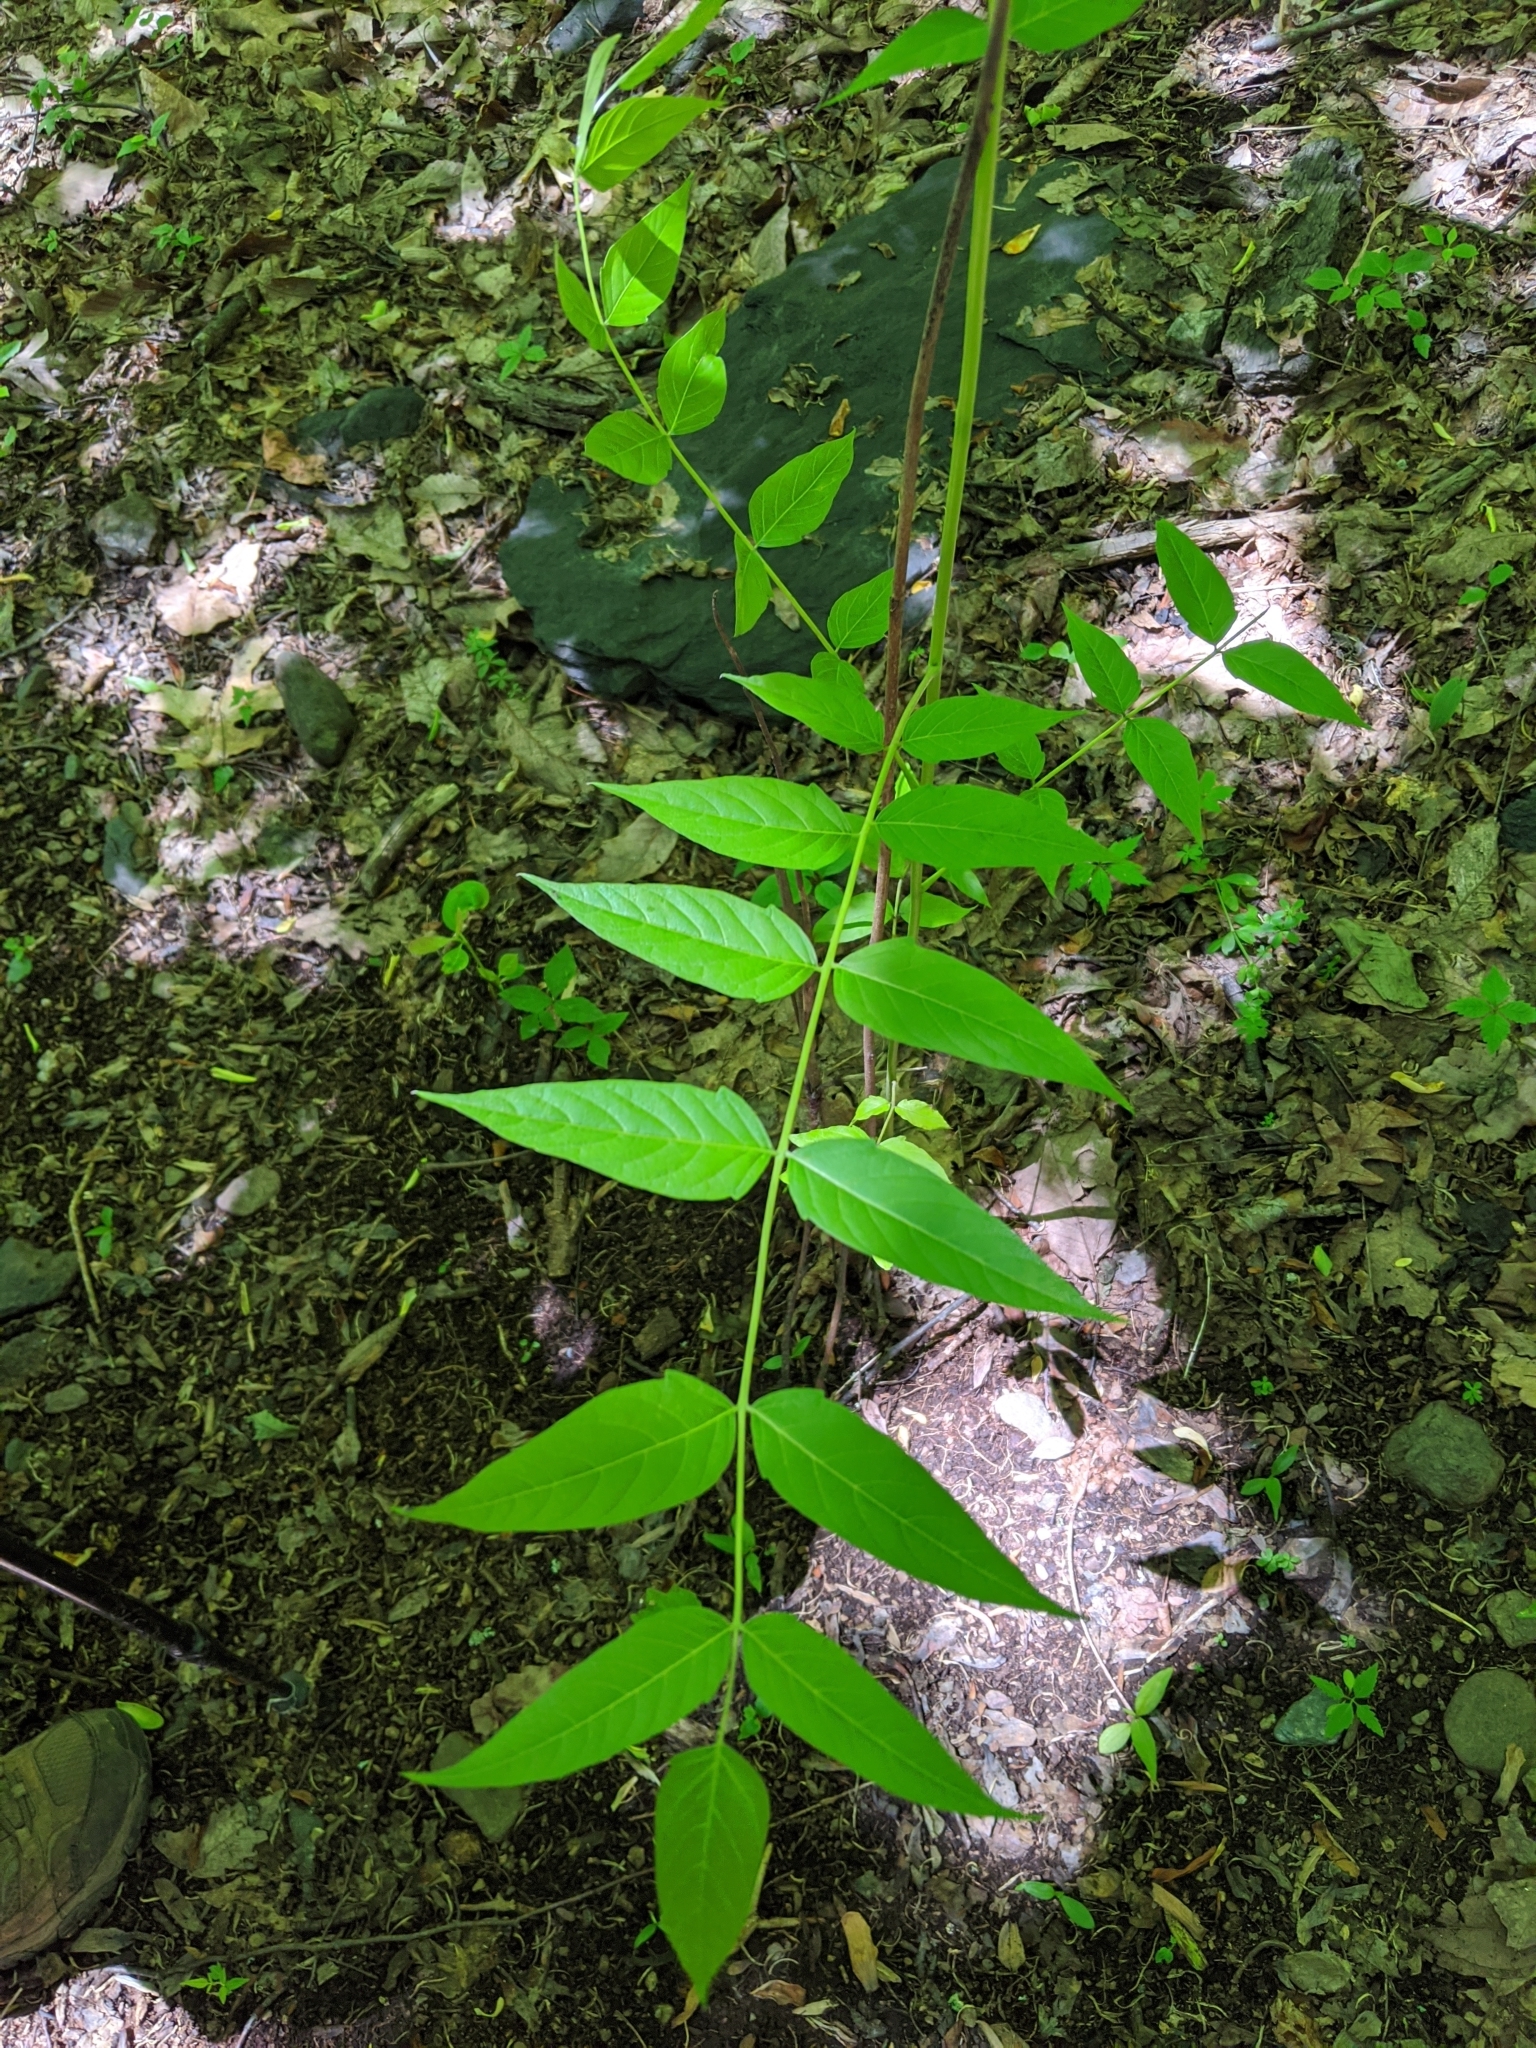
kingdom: Plantae
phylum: Tracheophyta
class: Magnoliopsida
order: Sapindales
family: Simaroubaceae
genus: Ailanthus
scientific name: Ailanthus altissima
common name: Tree-of-heaven
